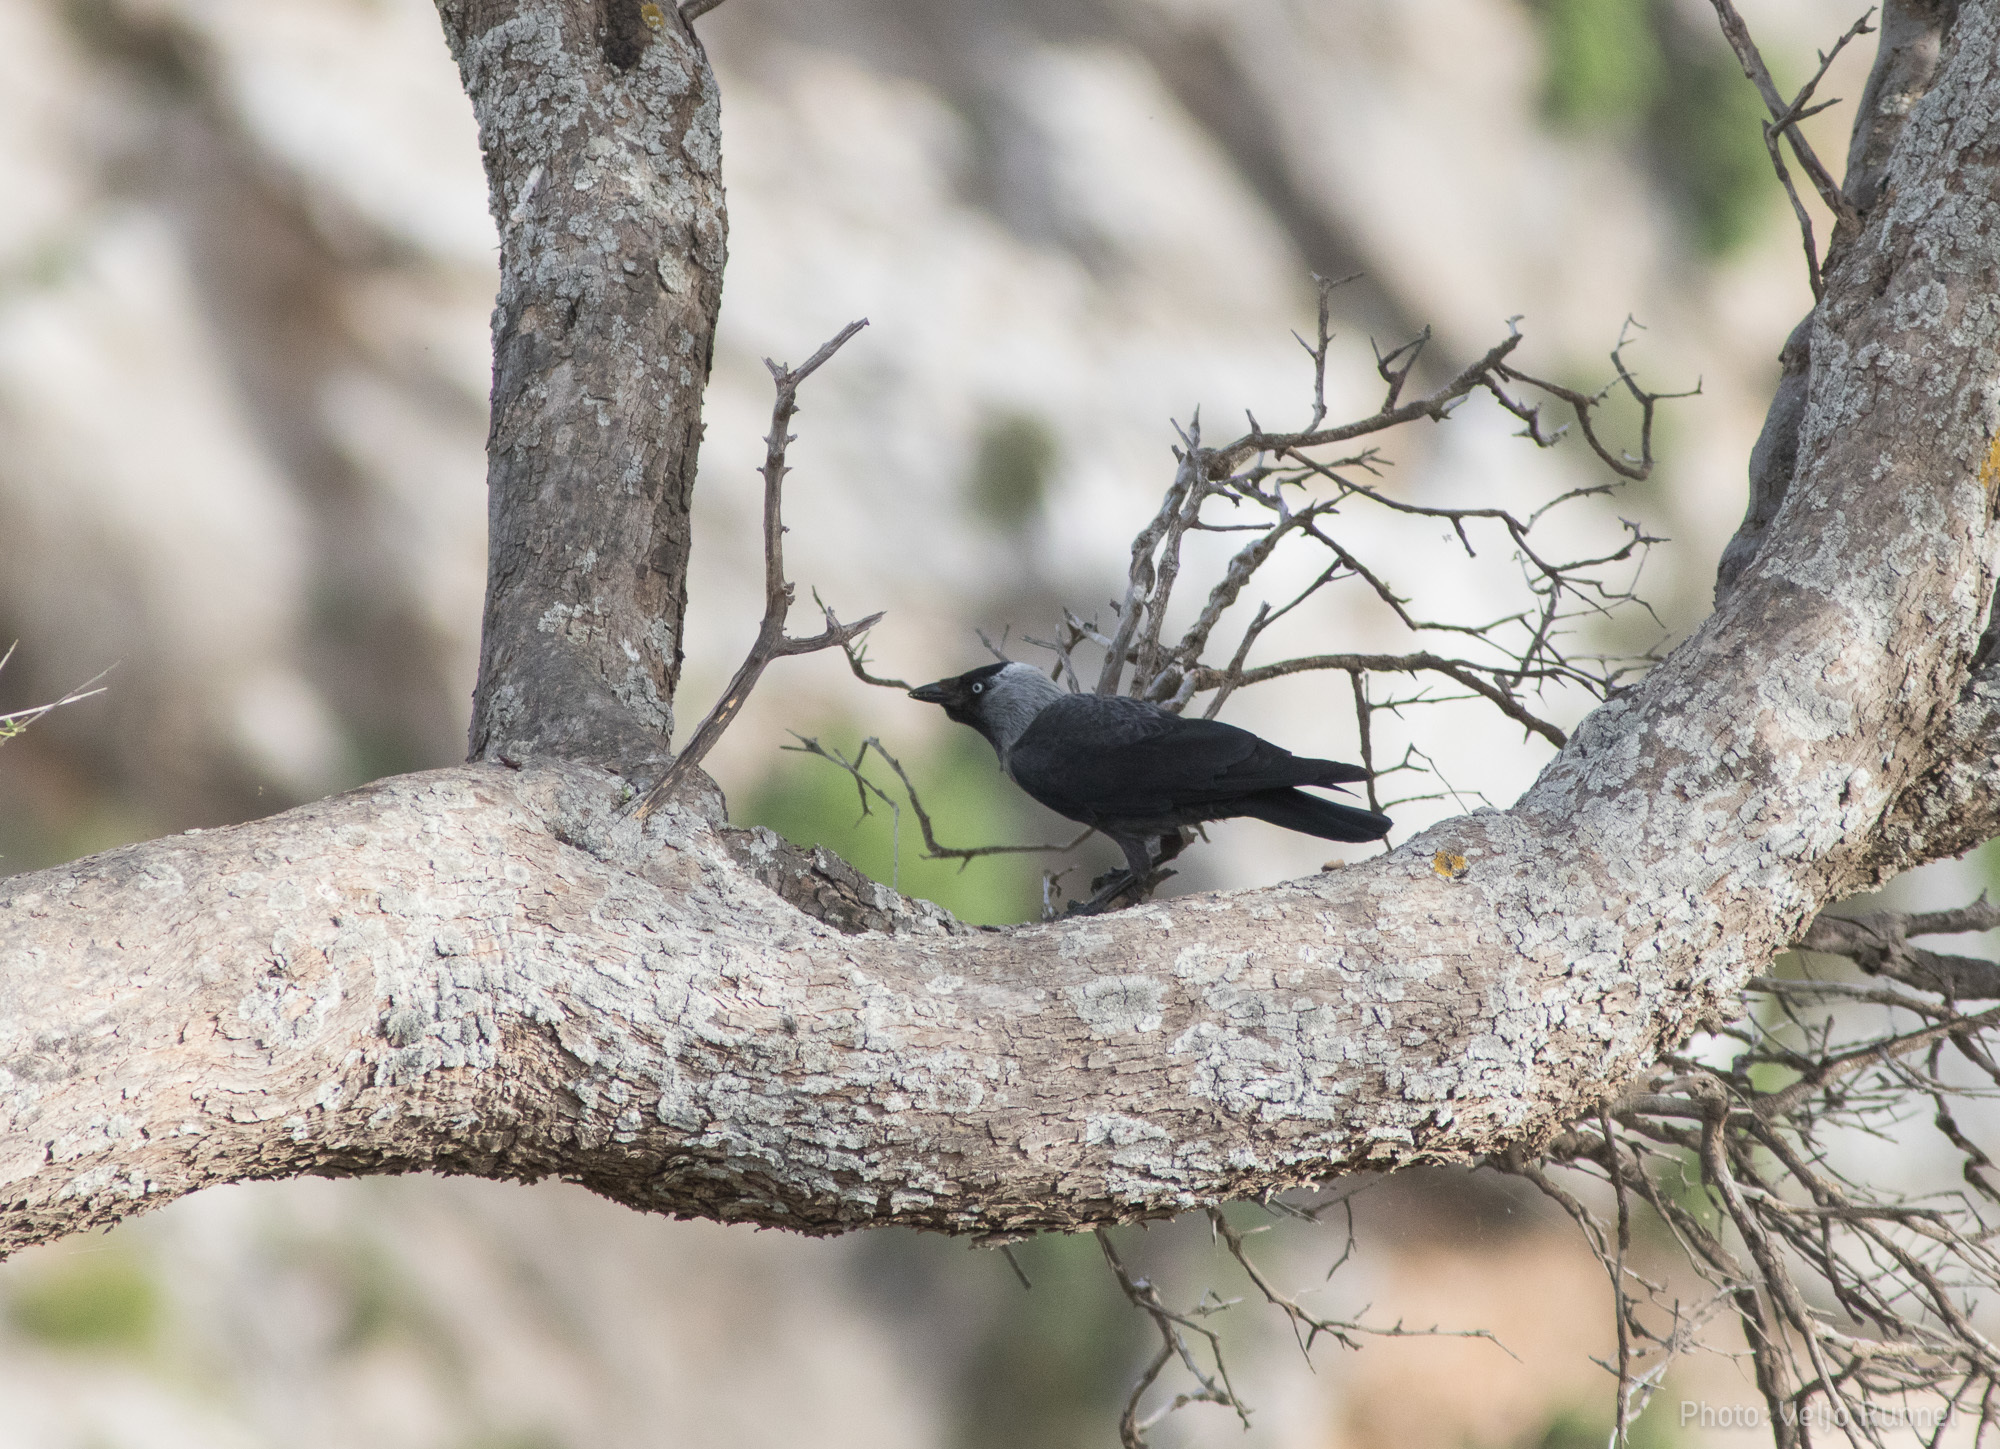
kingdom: Animalia
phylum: Chordata
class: Aves
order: Passeriformes
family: Corvidae
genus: Coloeus
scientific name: Coloeus monedula
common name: Western jackdaw
